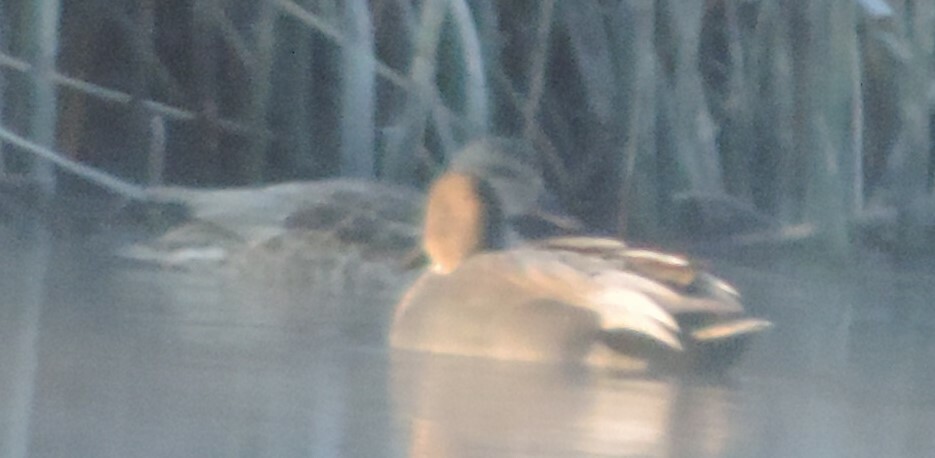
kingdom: Animalia
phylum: Chordata
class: Aves
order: Anseriformes
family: Anatidae
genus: Mareca
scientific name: Mareca strepera
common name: Gadwall
